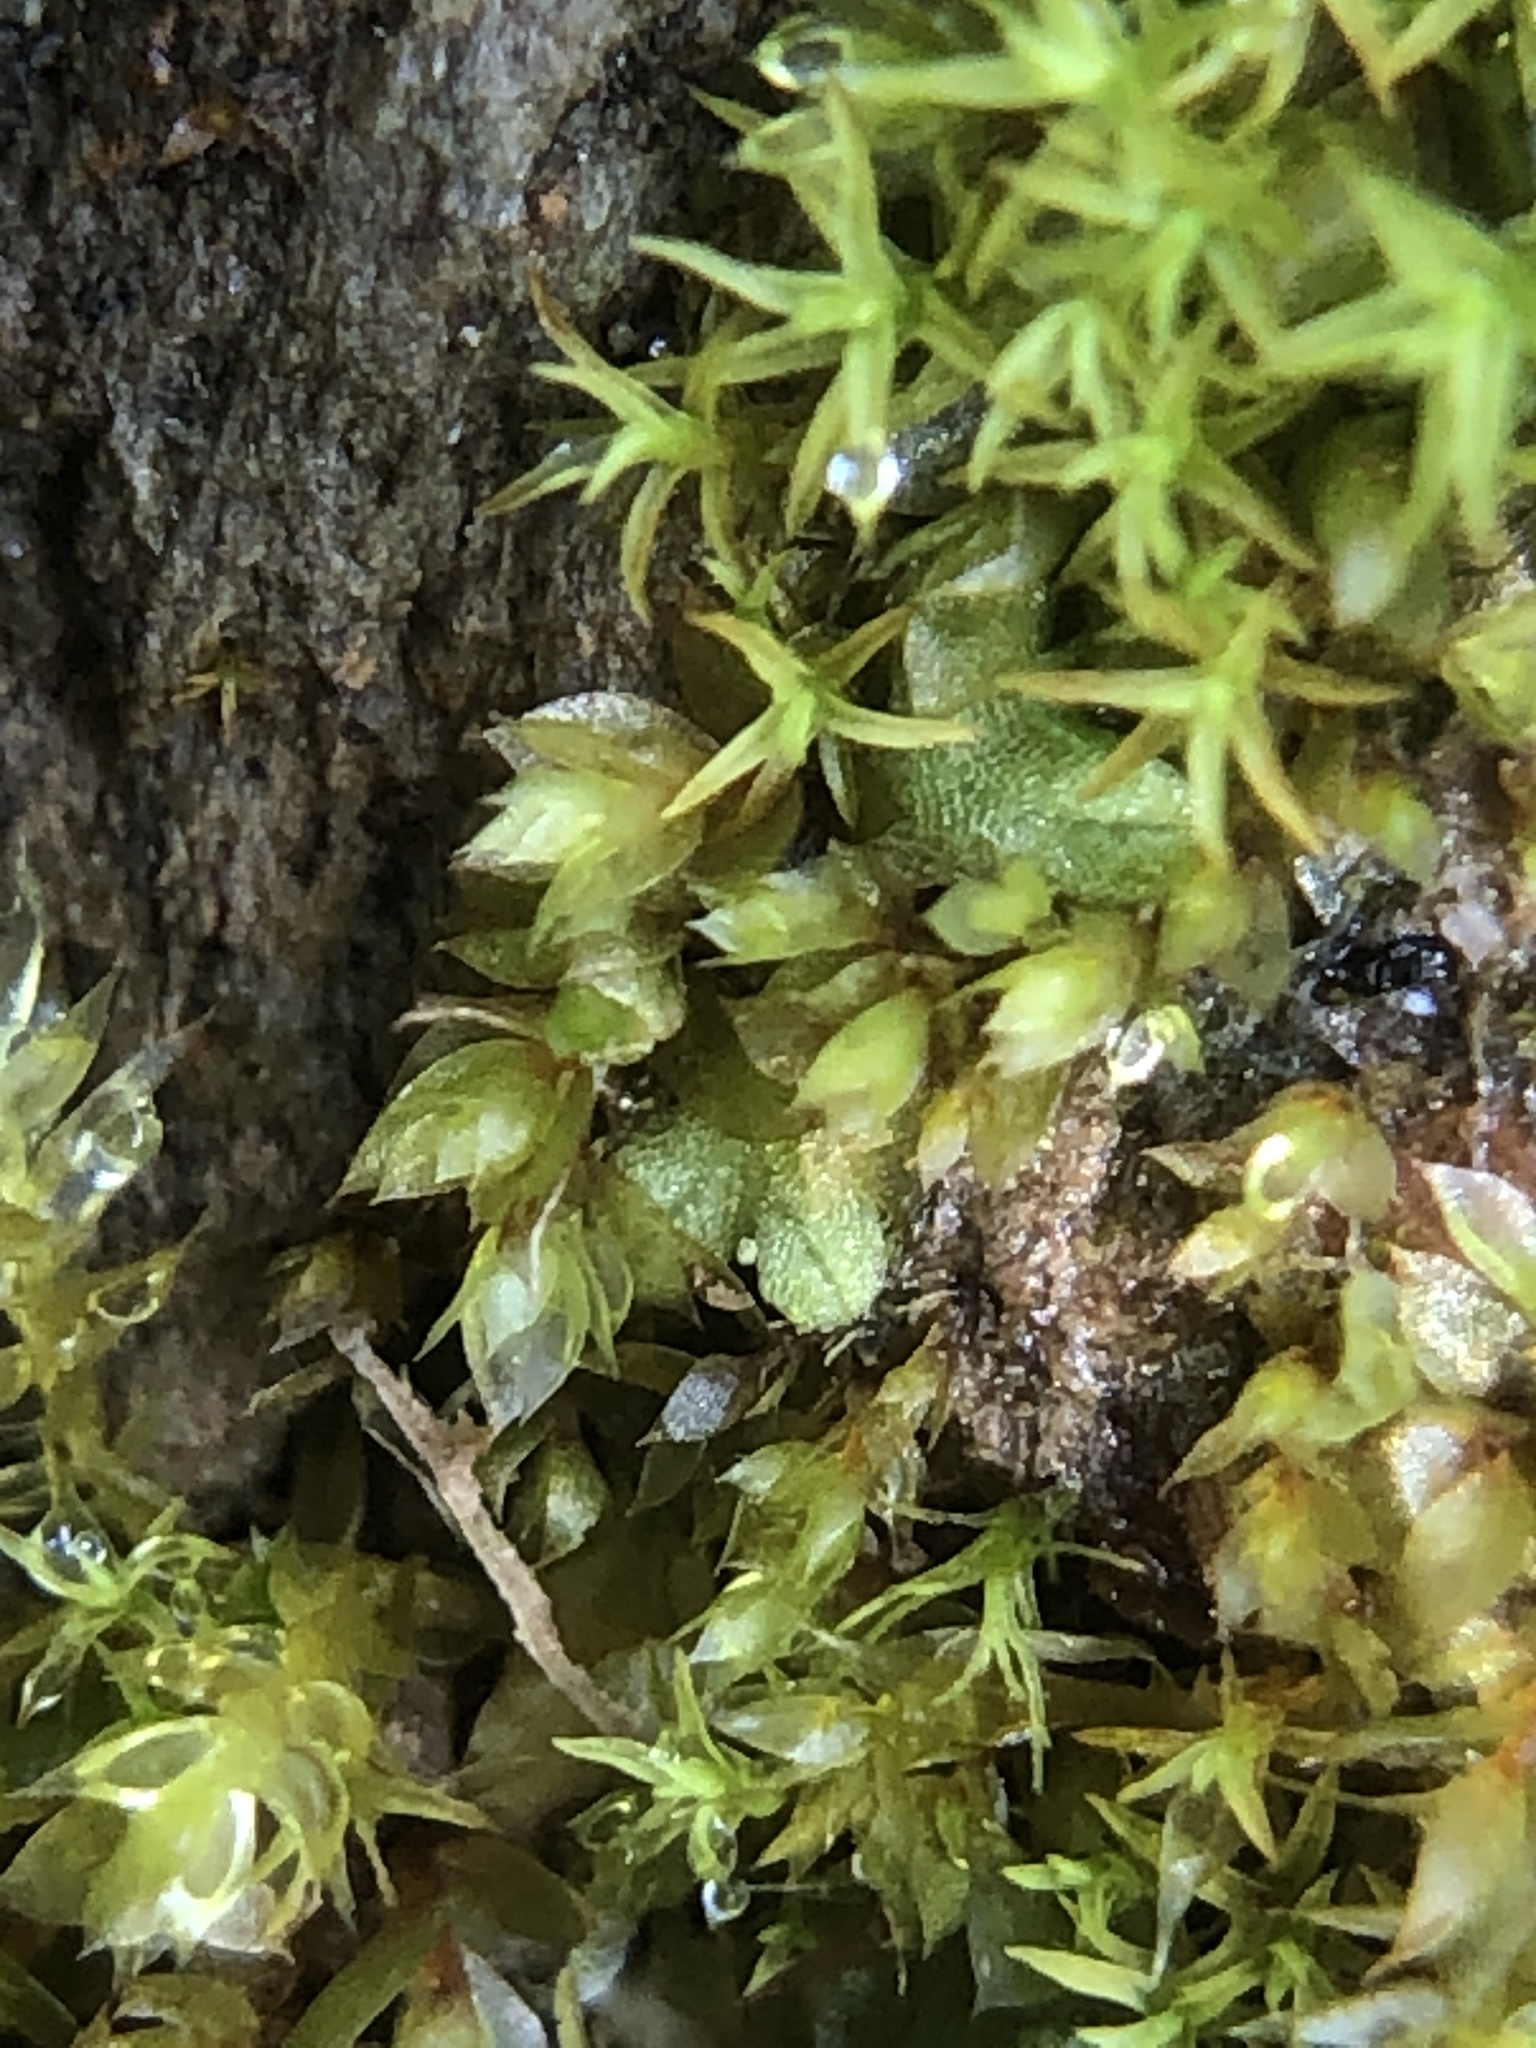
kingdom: Plantae
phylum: Bryophyta
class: Bryopsida
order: Bryales
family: Mniaceae
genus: Epipterygium
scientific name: Epipterygium tozeri
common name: Tozer's thread-moss
